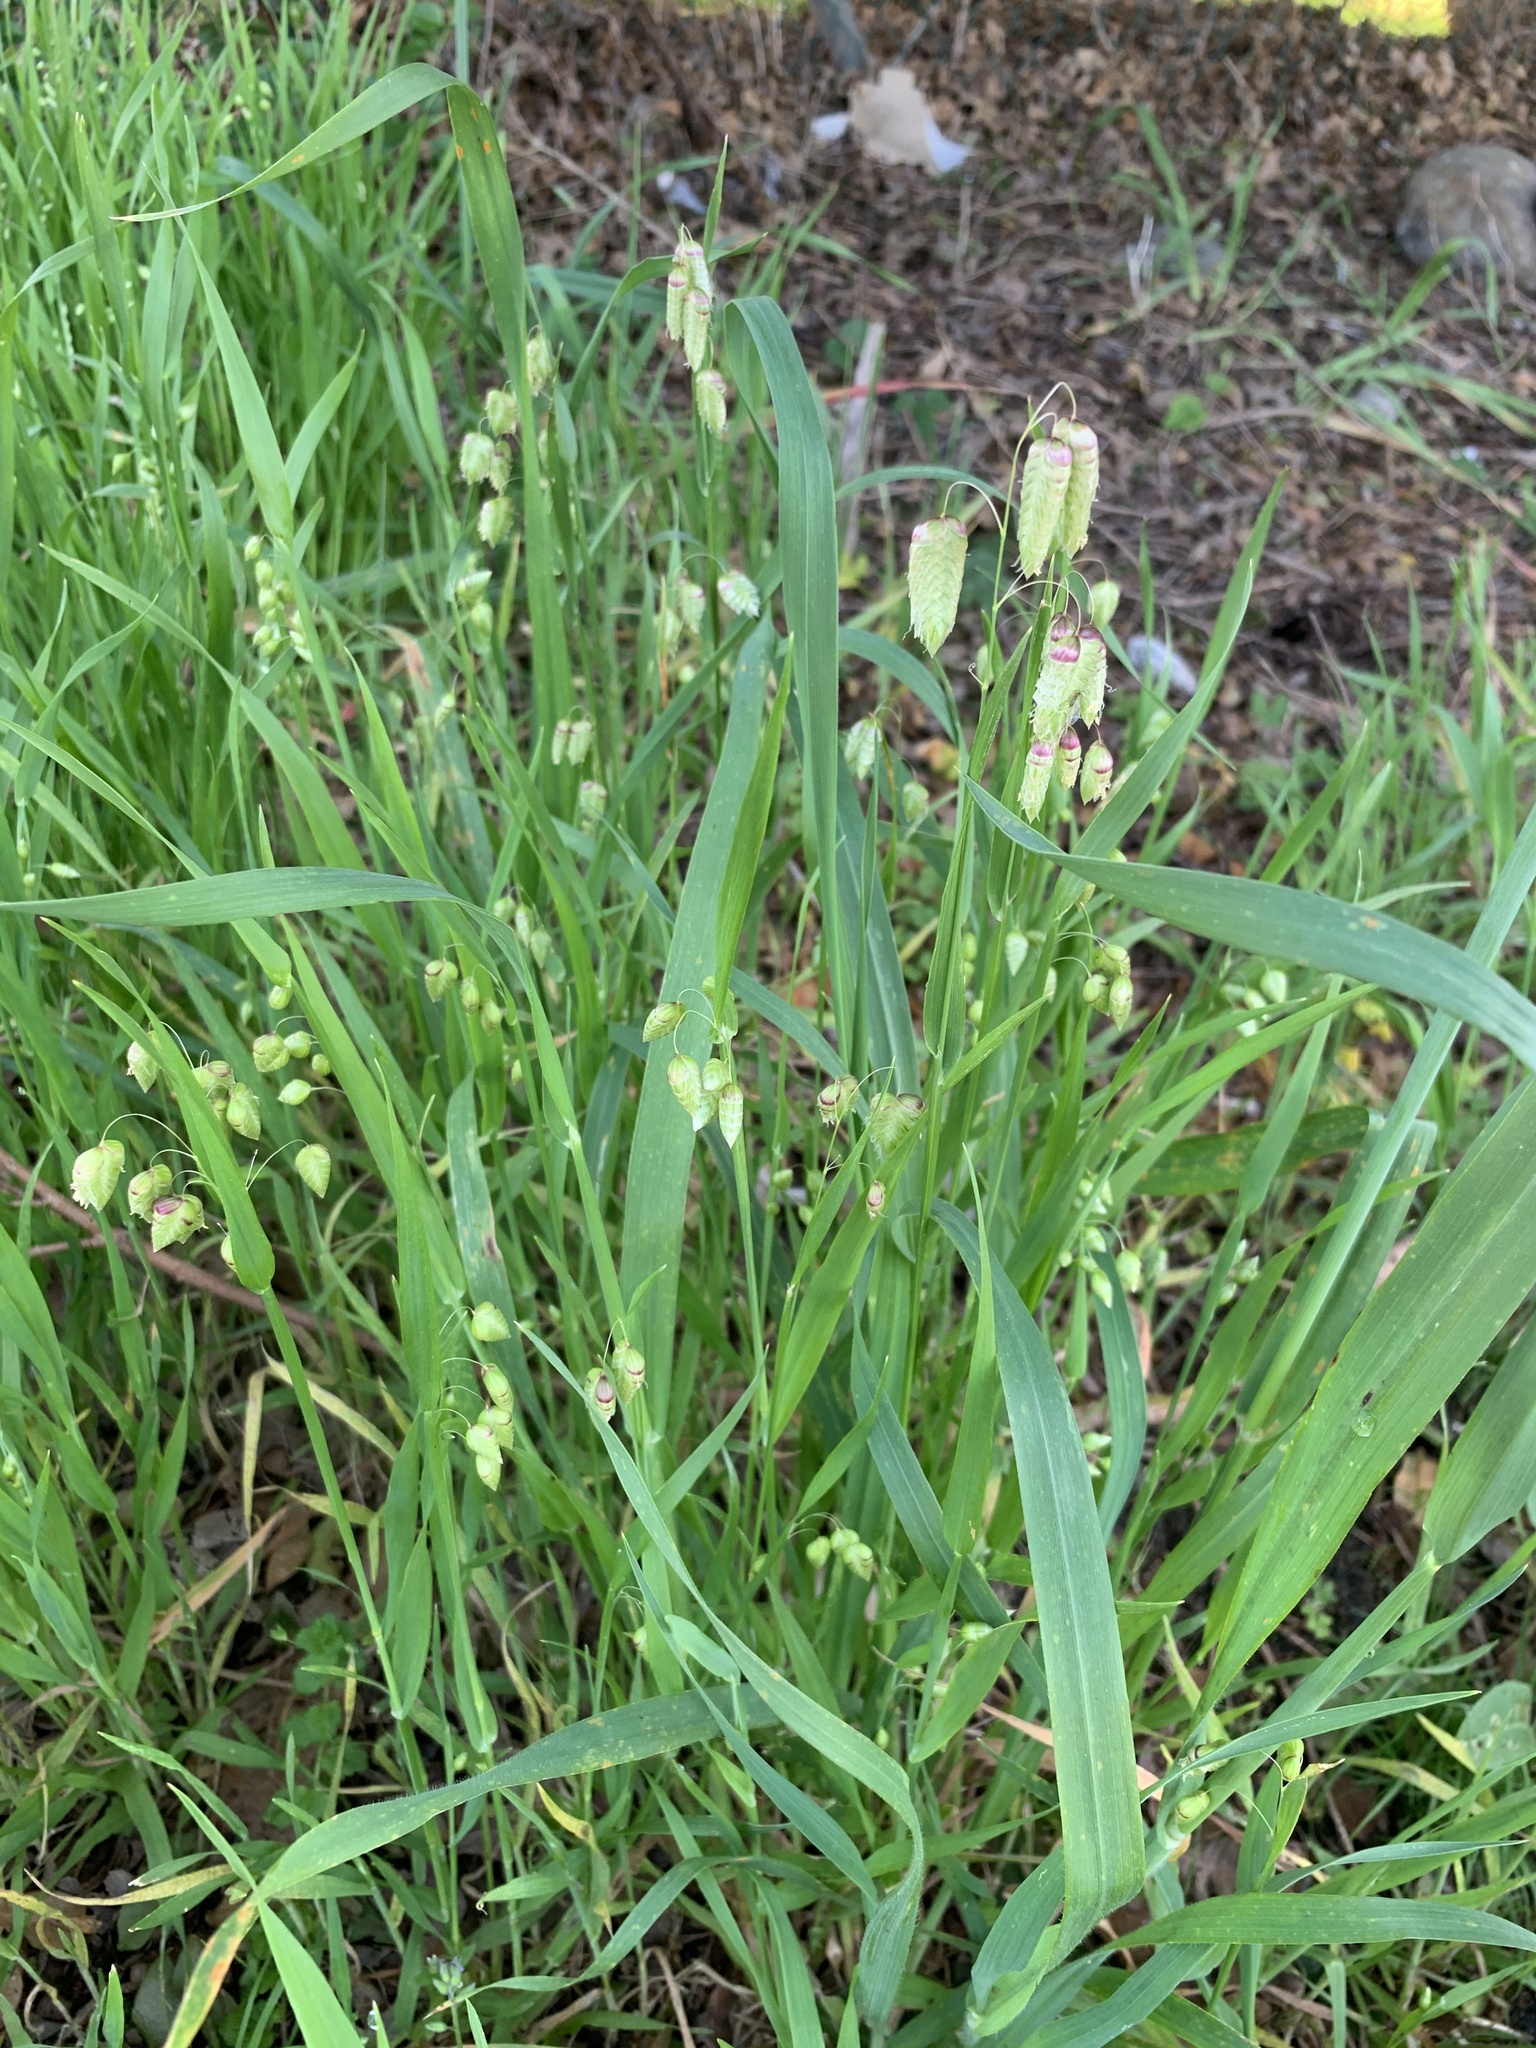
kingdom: Plantae
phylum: Tracheophyta
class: Liliopsida
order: Poales
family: Poaceae
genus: Briza
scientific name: Briza maxima
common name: Big quakinggrass
